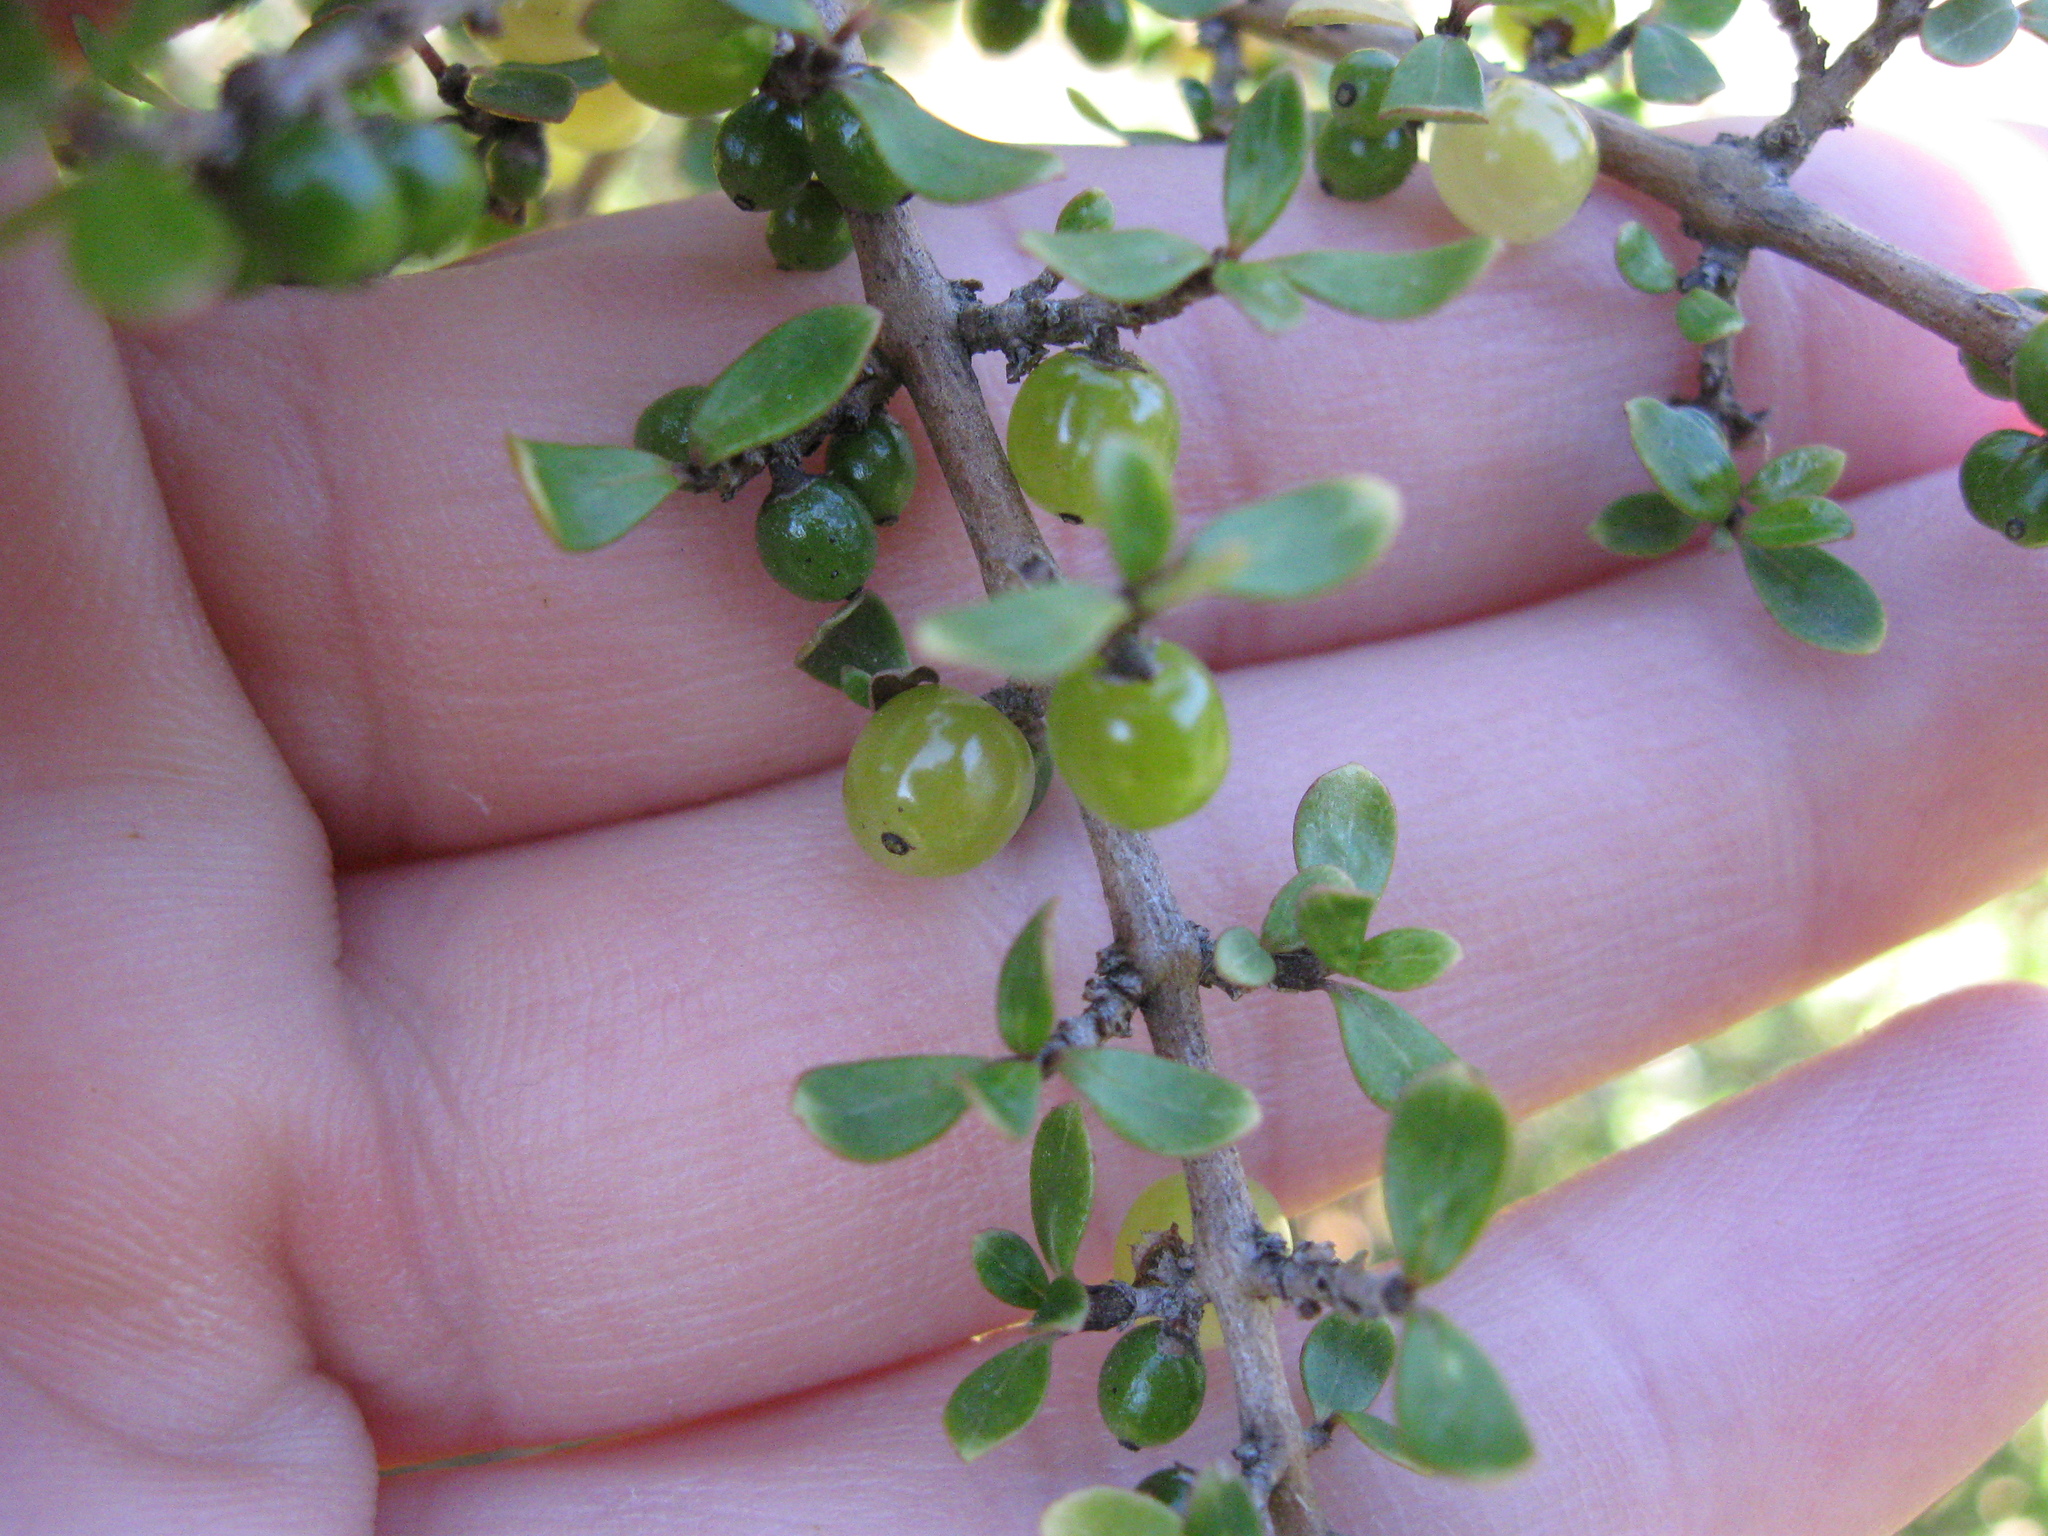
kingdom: Plantae
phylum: Tracheophyta
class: Magnoliopsida
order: Gentianales
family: Rubiaceae
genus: Coprosma
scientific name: Coprosma dumosa
